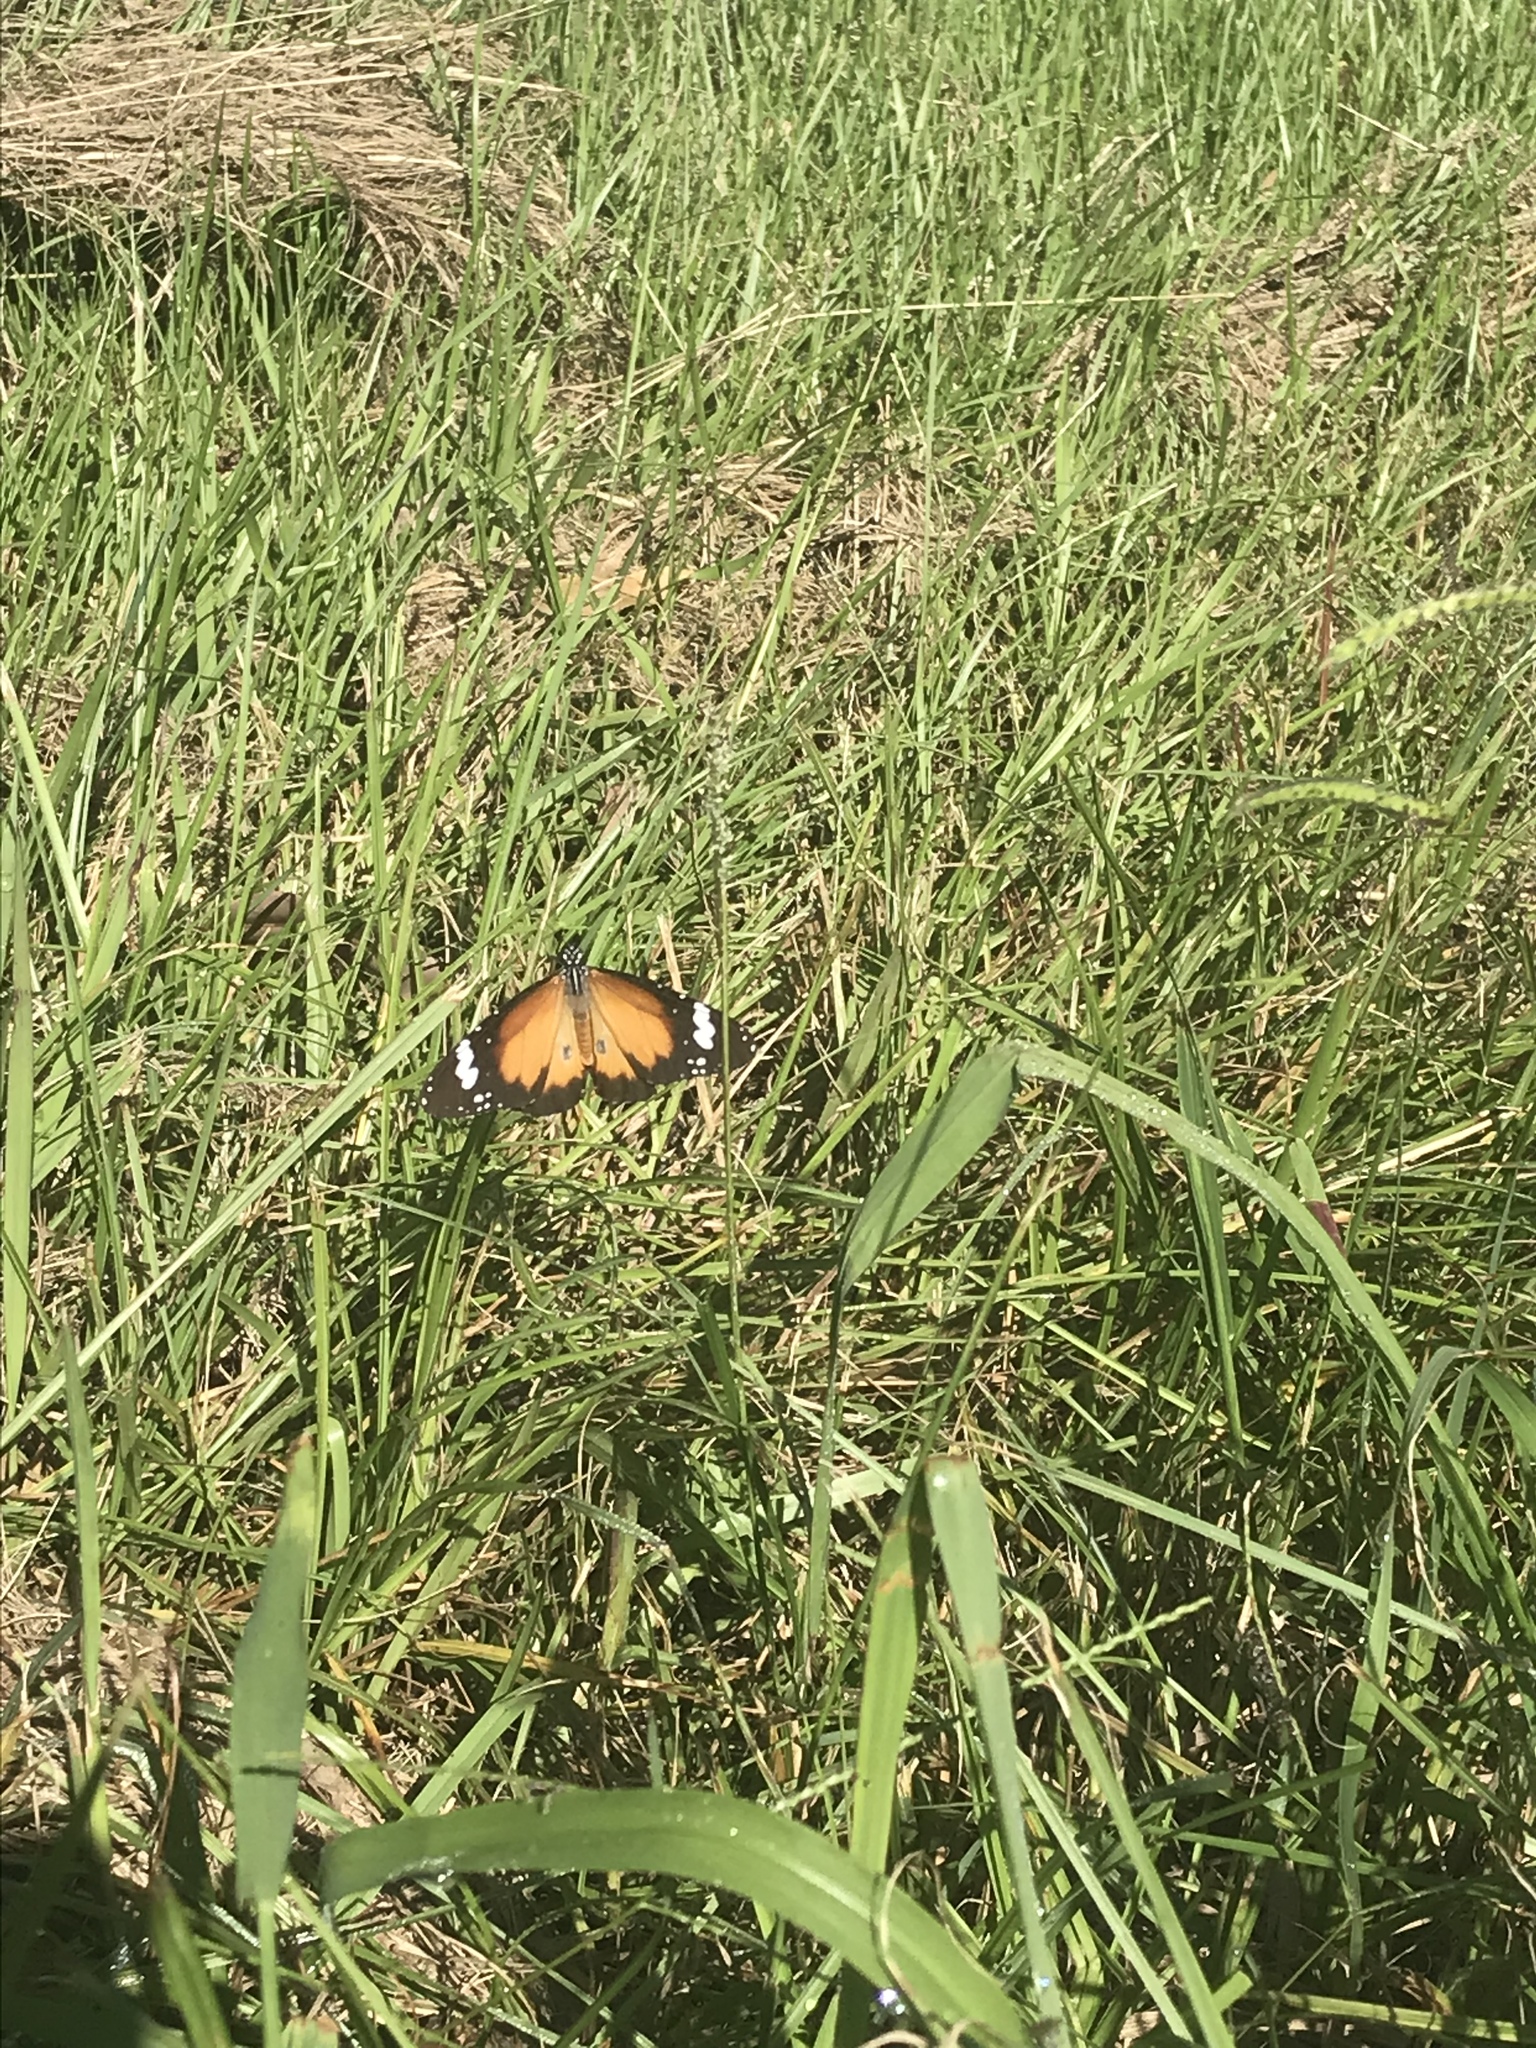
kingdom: Animalia
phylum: Arthropoda
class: Insecta
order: Lepidoptera
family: Nymphalidae
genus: Danaus
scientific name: Danaus chrysippus
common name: Plain tiger
